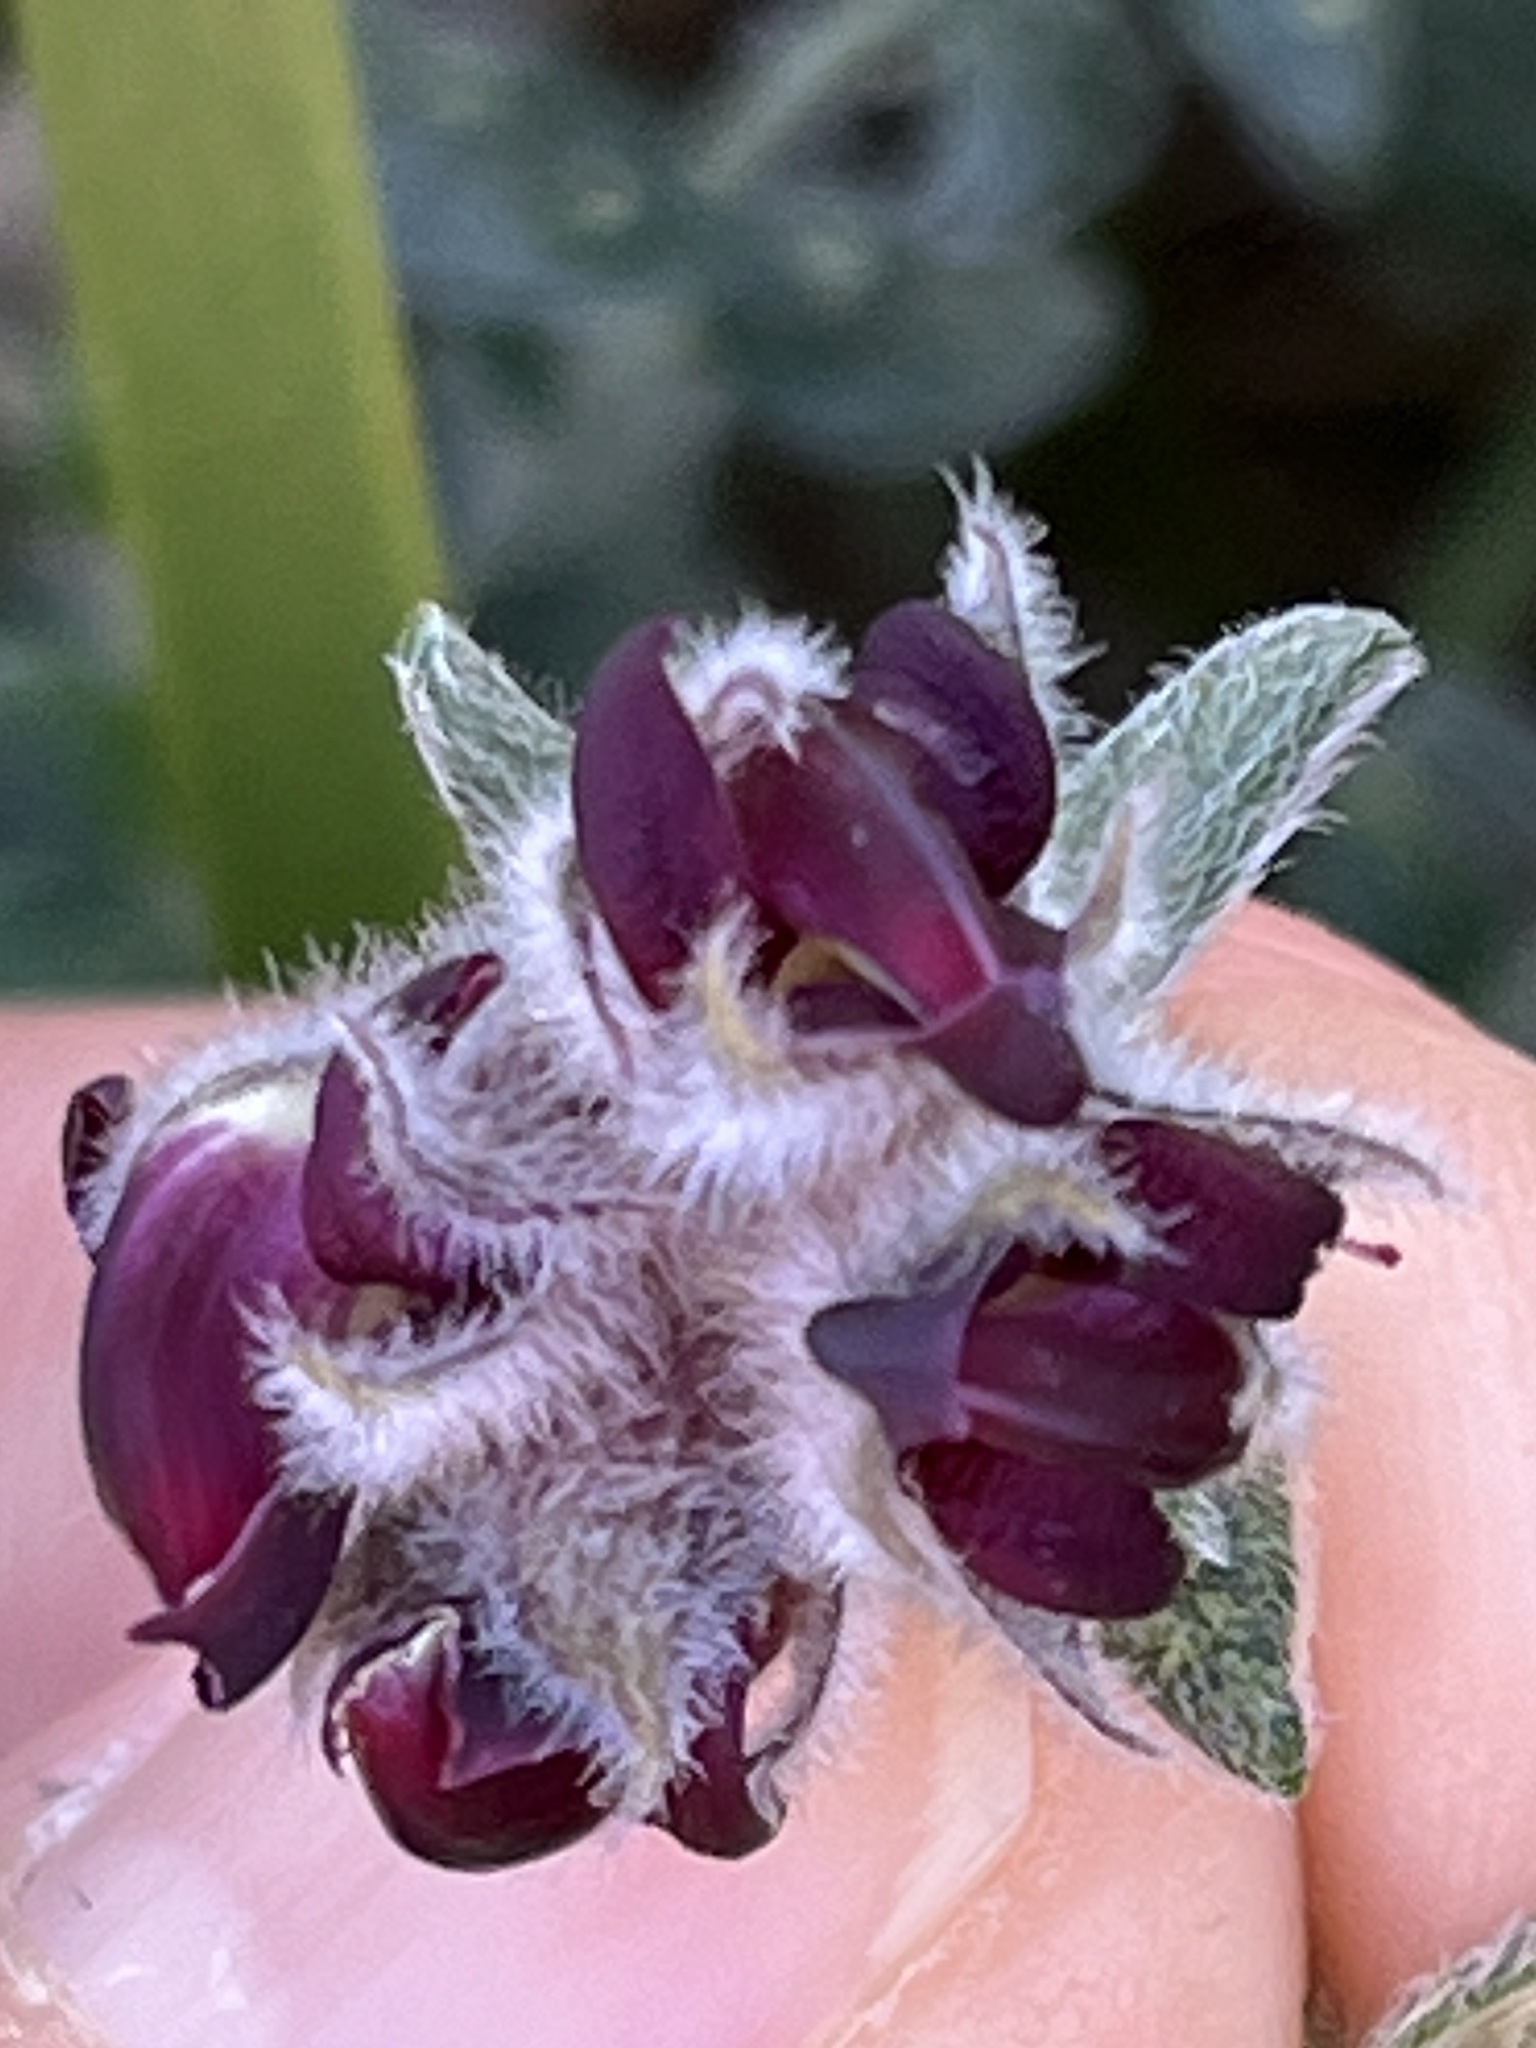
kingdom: Plantae
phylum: Tracheophyta
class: Magnoliopsida
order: Fabales
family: Fabaceae
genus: Amphithalea
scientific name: Amphithalea rostrata
